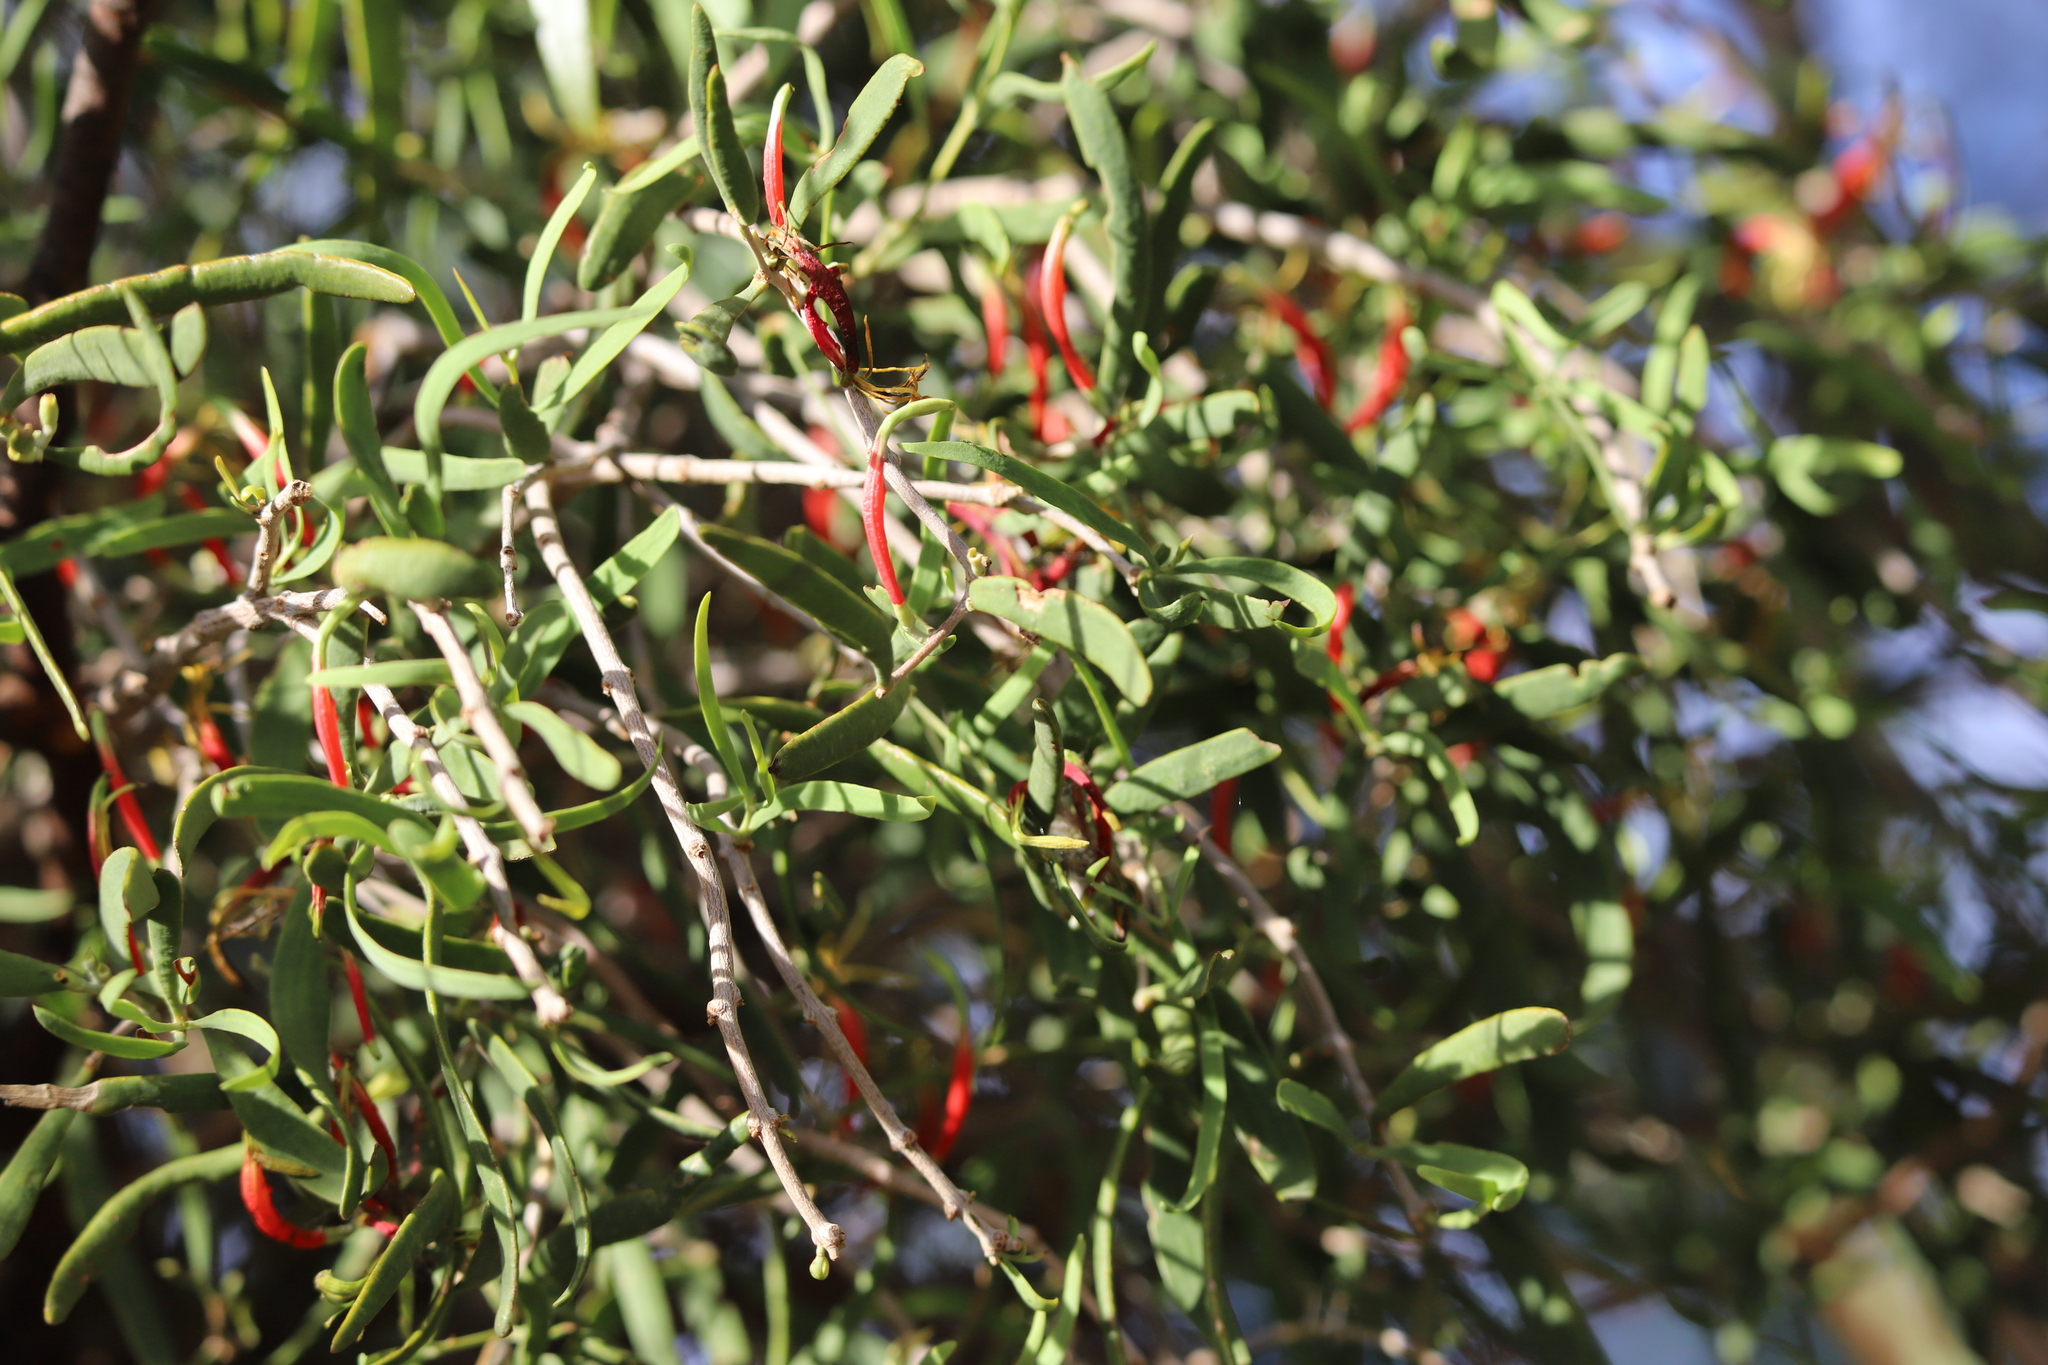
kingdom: Plantae
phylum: Tracheophyta
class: Magnoliopsida
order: Santalales
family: Loranthaceae
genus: Lysiana
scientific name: Lysiana exocarpi
